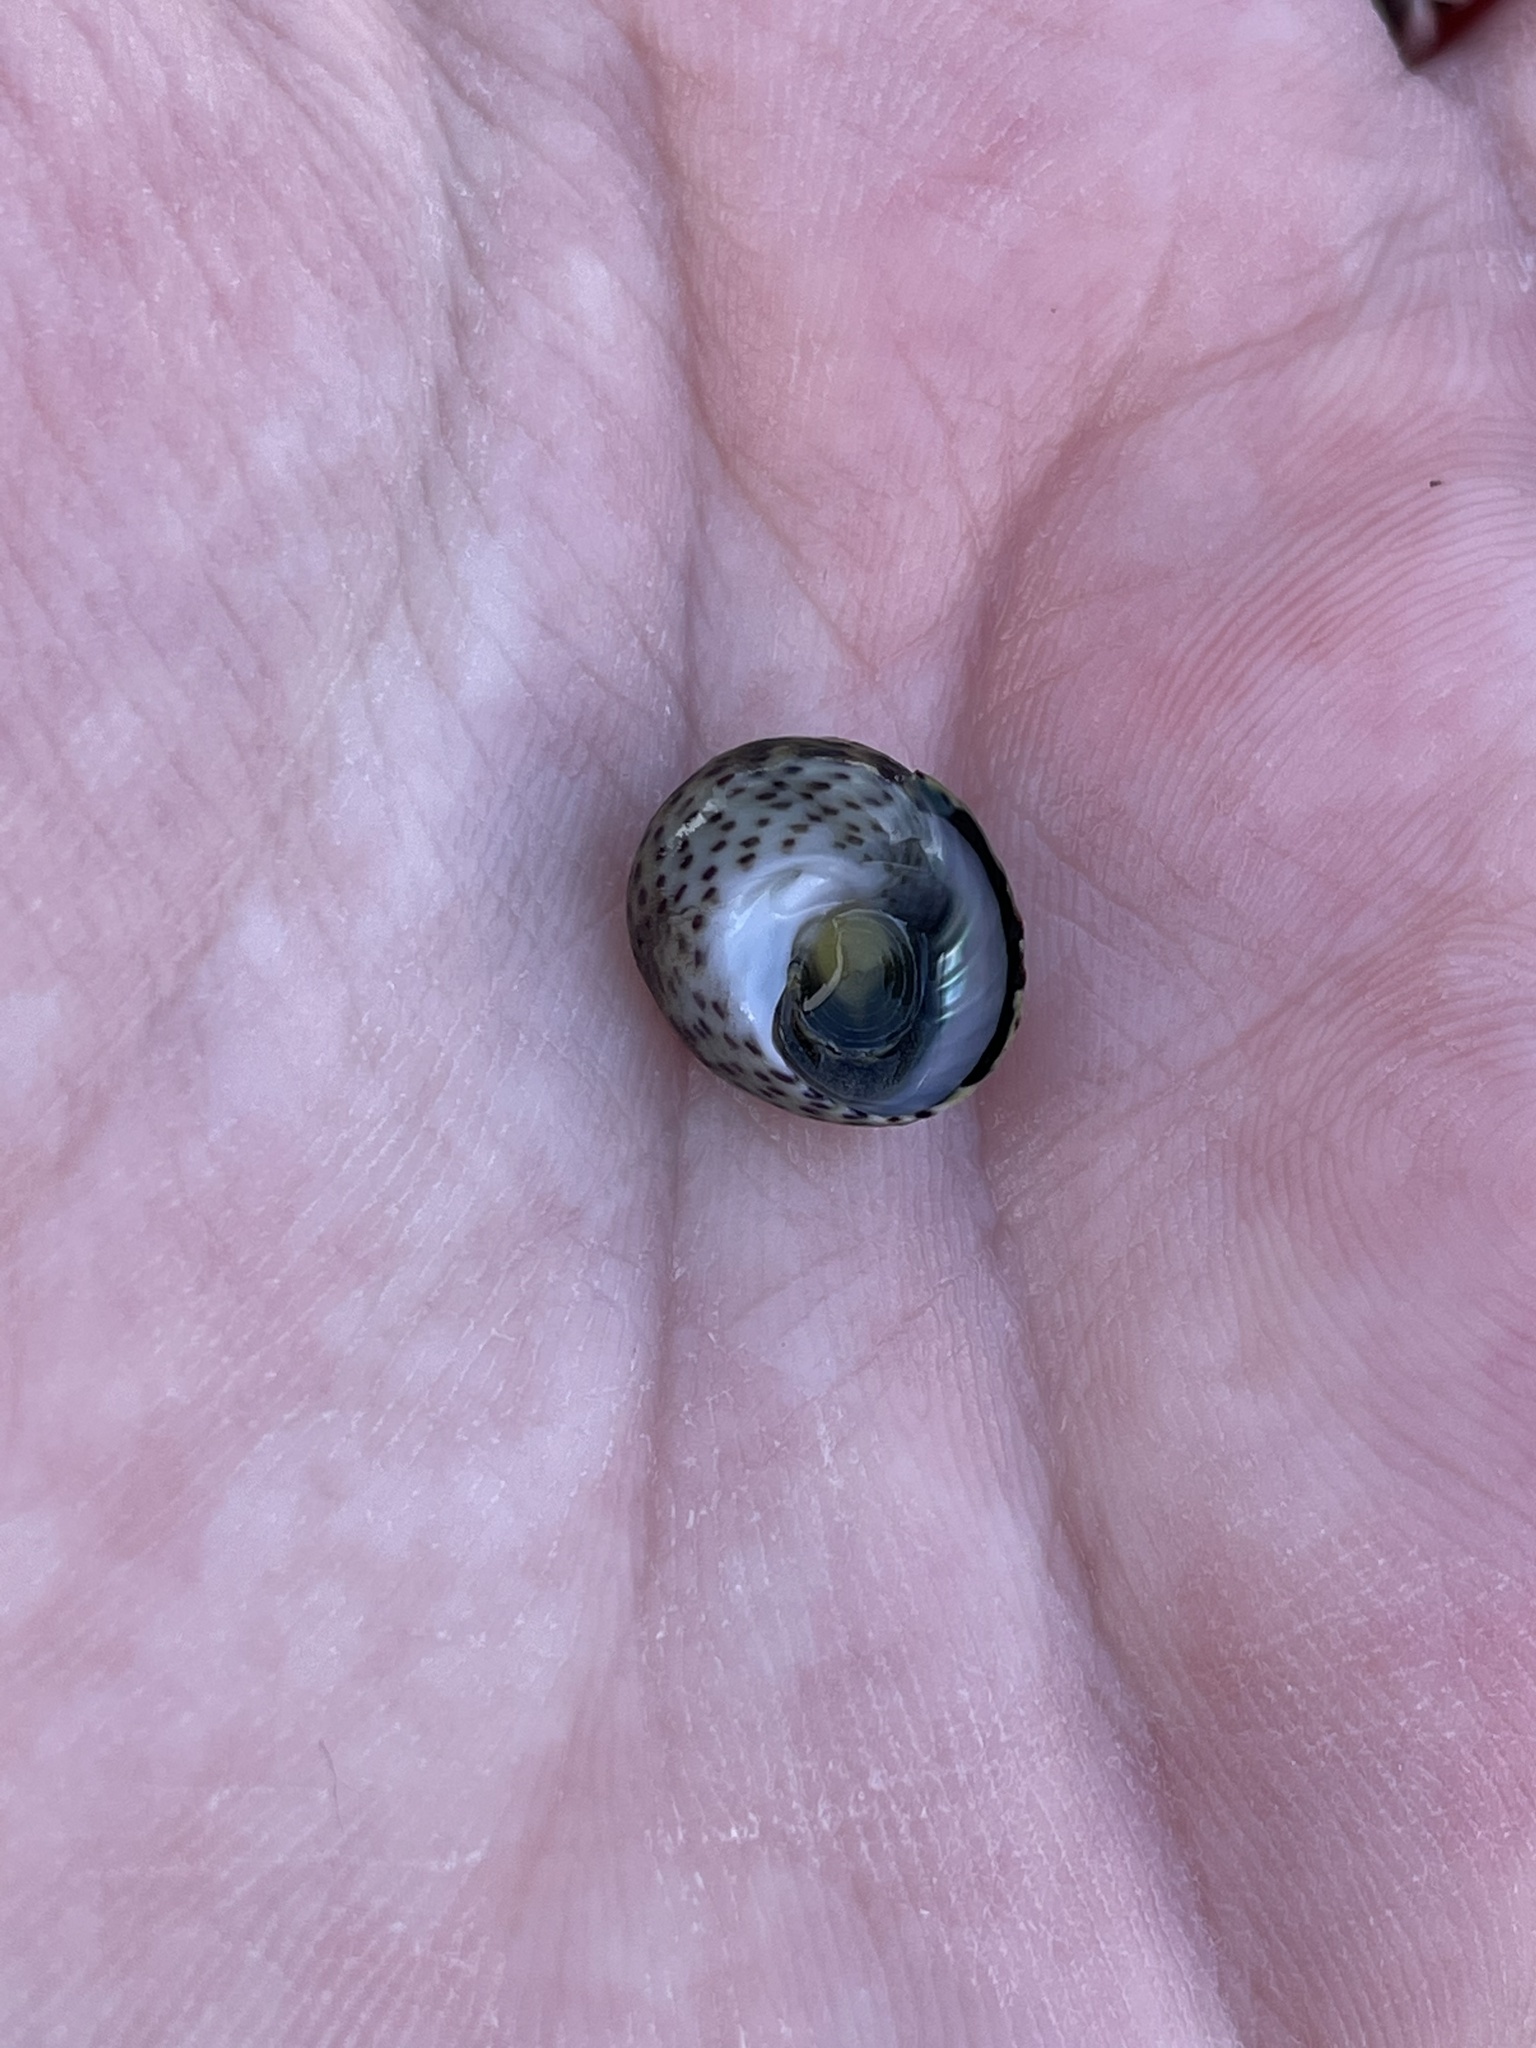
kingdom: Animalia
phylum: Mollusca
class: Gastropoda
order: Trochida
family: Trochidae
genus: Phorcus
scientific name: Phorcus turbinatus
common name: Turbinate monodont
